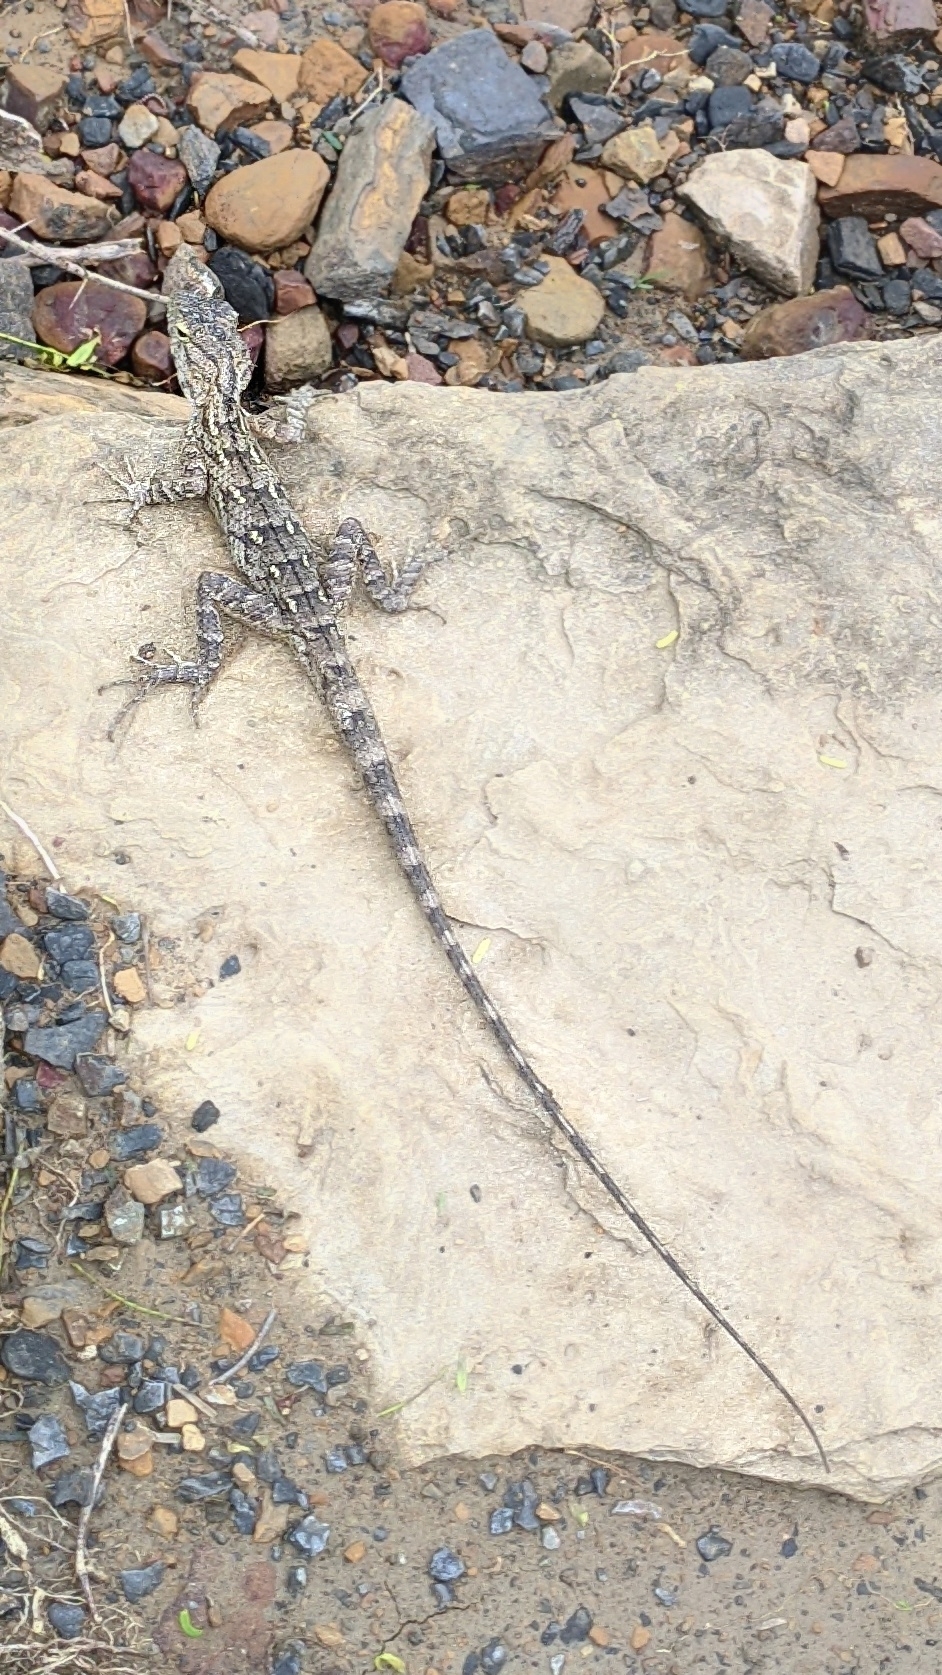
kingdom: Animalia
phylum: Chordata
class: Squamata
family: Agamidae
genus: Calotes
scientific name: Calotes versicolor
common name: Oriental garden lizard
